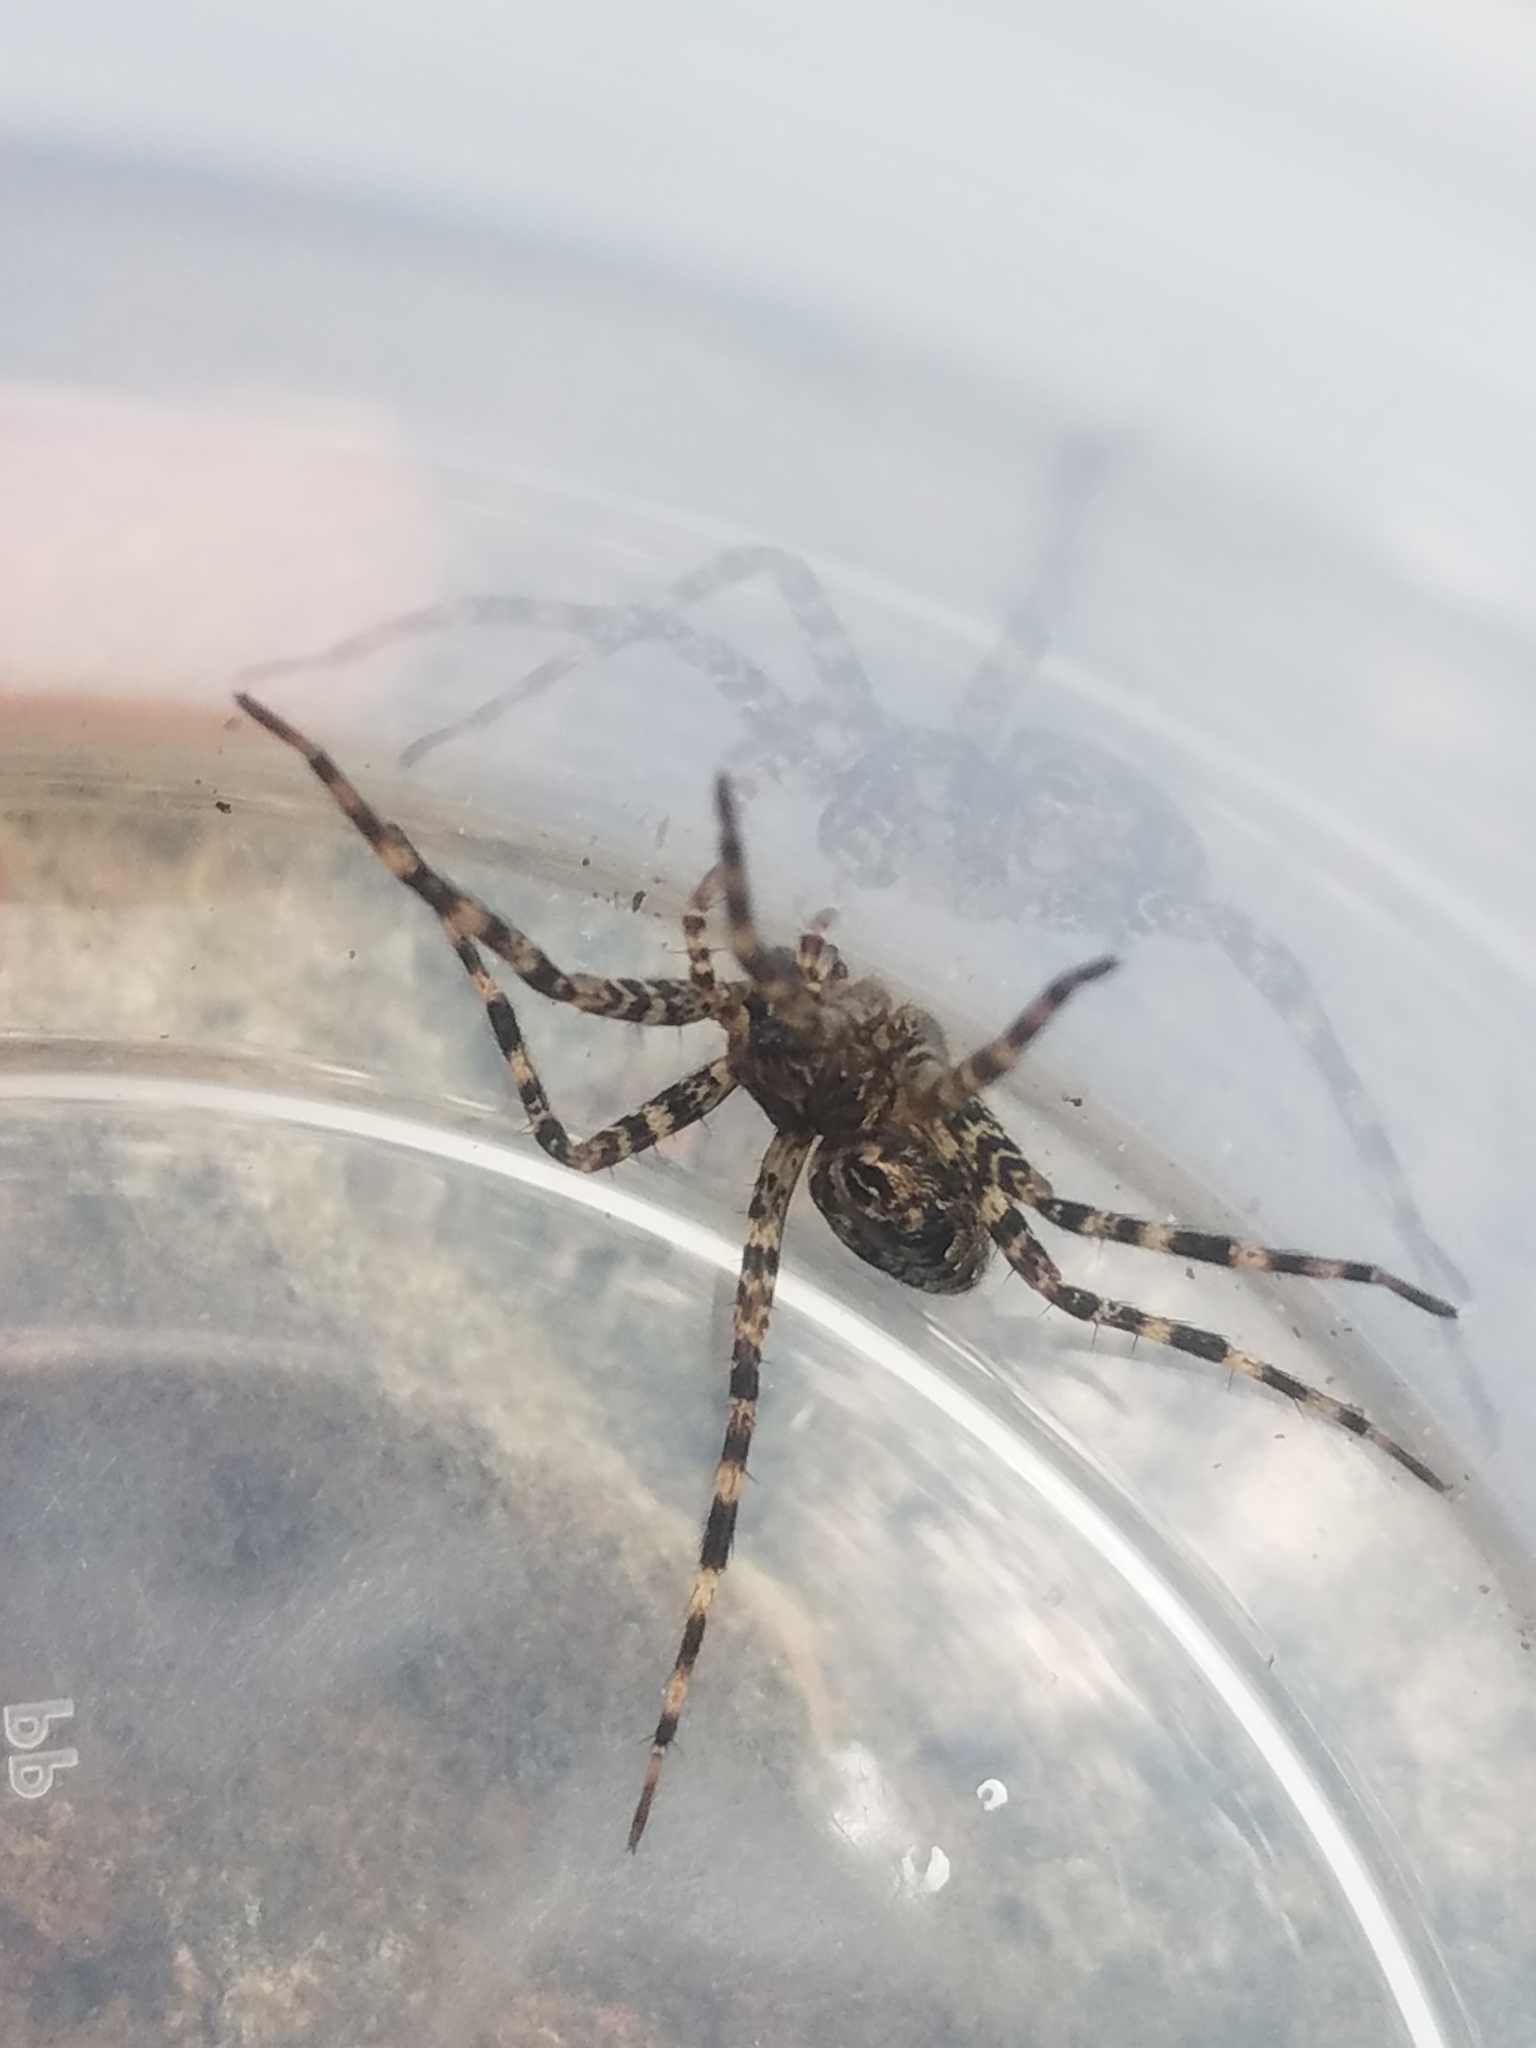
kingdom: Animalia
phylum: Arthropoda
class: Arachnida
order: Araneae
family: Pisauridae
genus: Dolomedes
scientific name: Dolomedes tenebrosus
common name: Dark fishing spider
